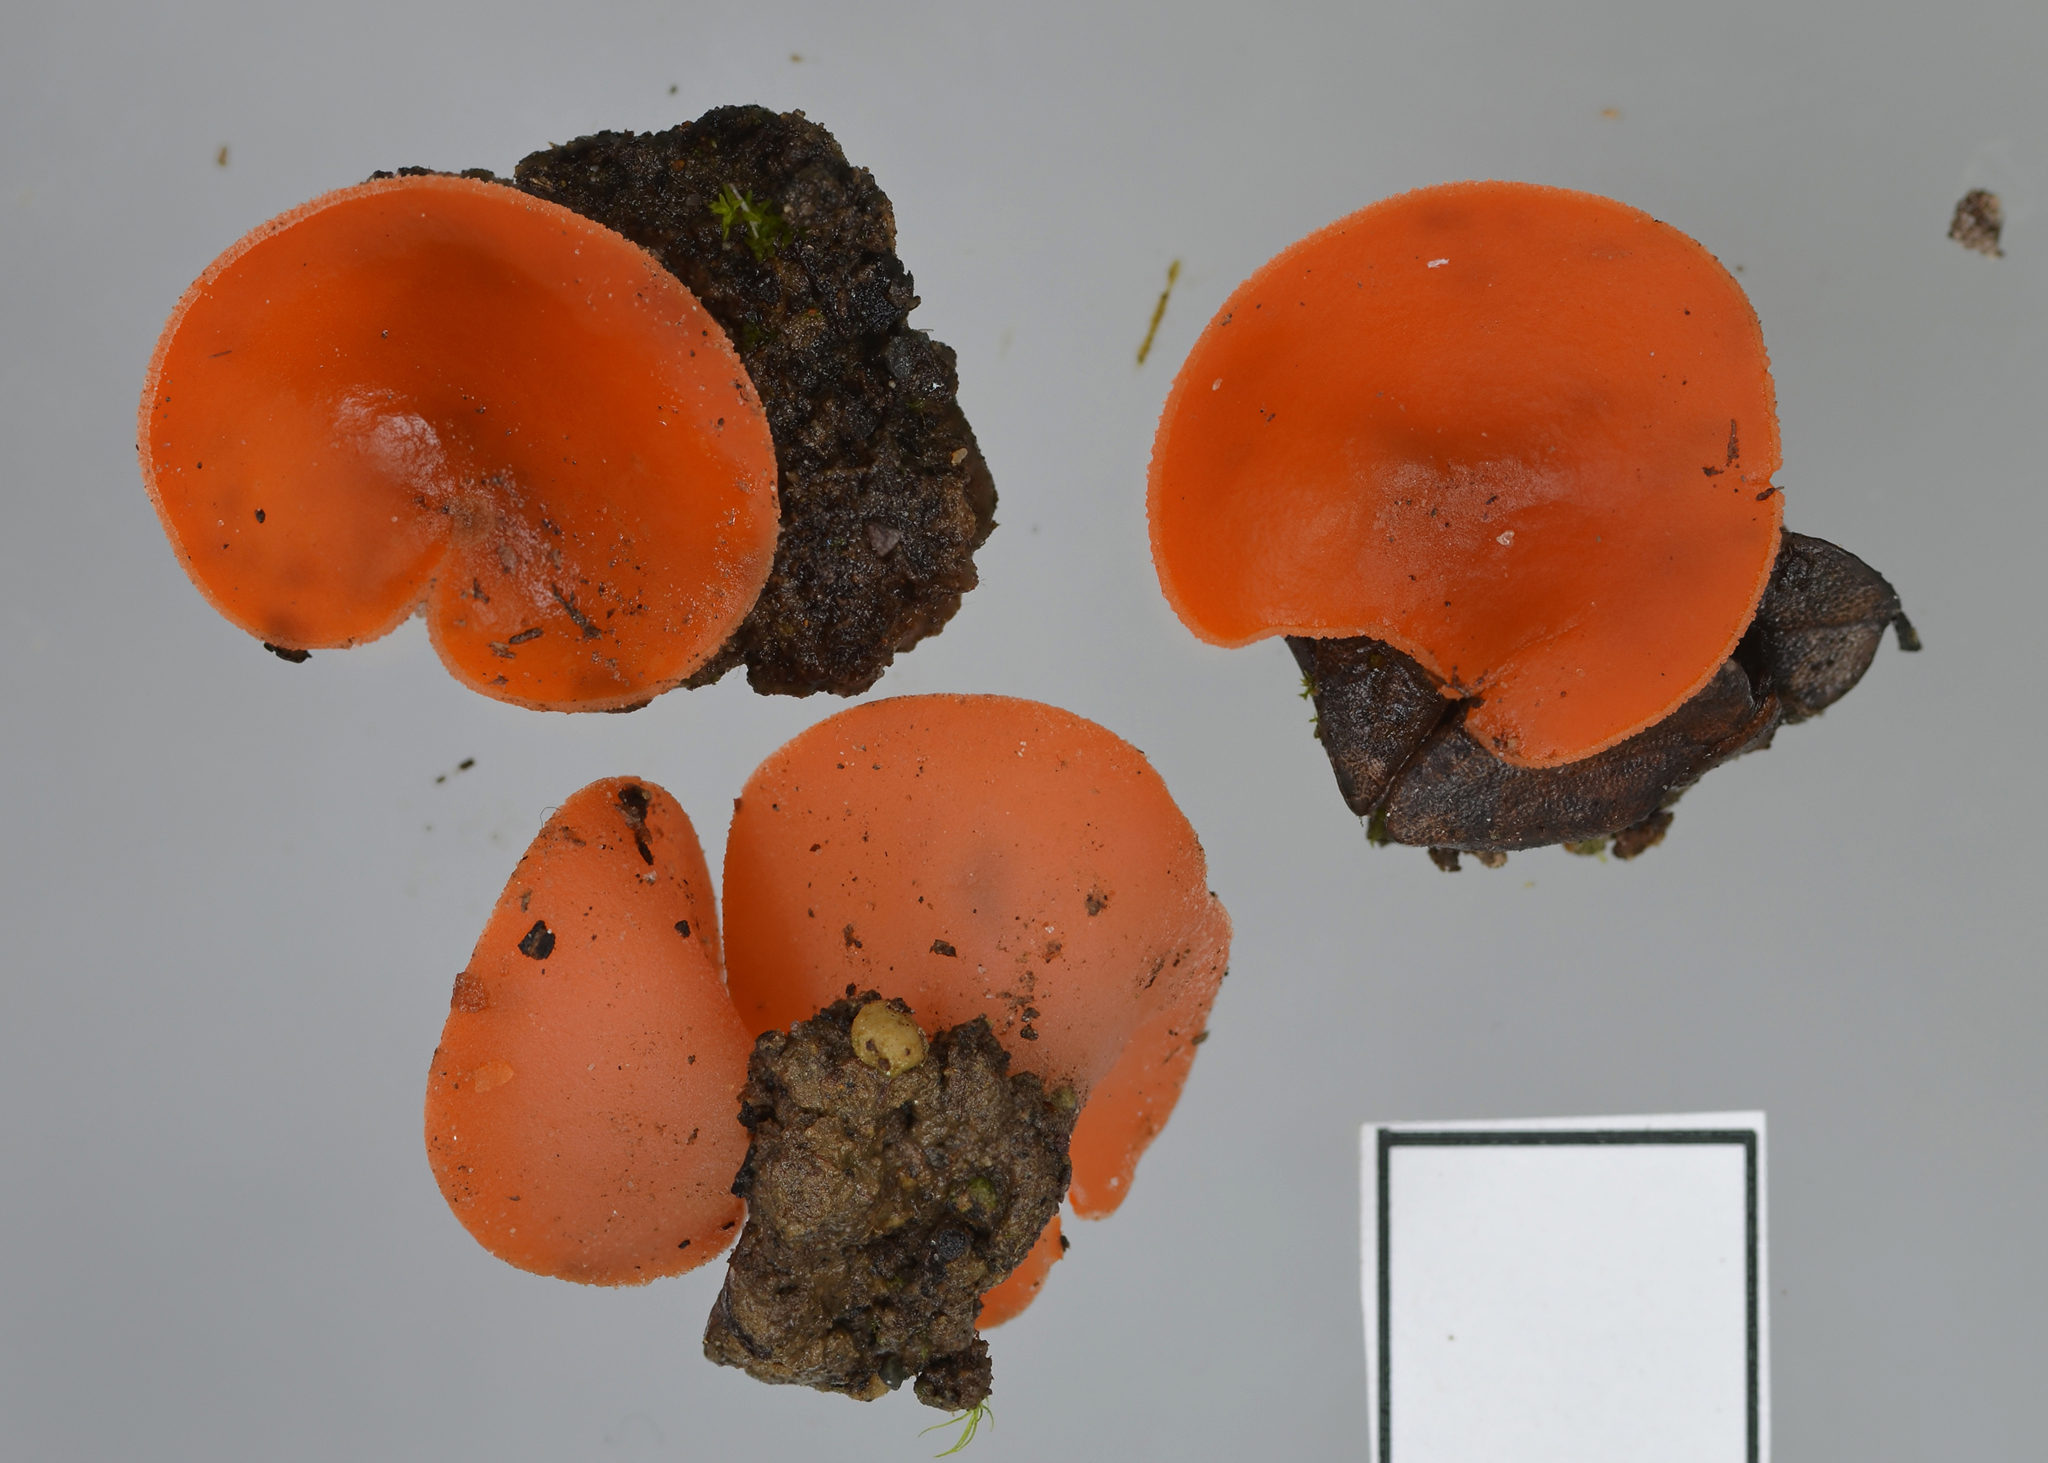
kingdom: Fungi
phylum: Ascomycota
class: Pezizomycetes
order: Pezizales
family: Pyronemataceae
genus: Aleuria
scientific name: Aleuria aurantia
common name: Orange peel fungus
